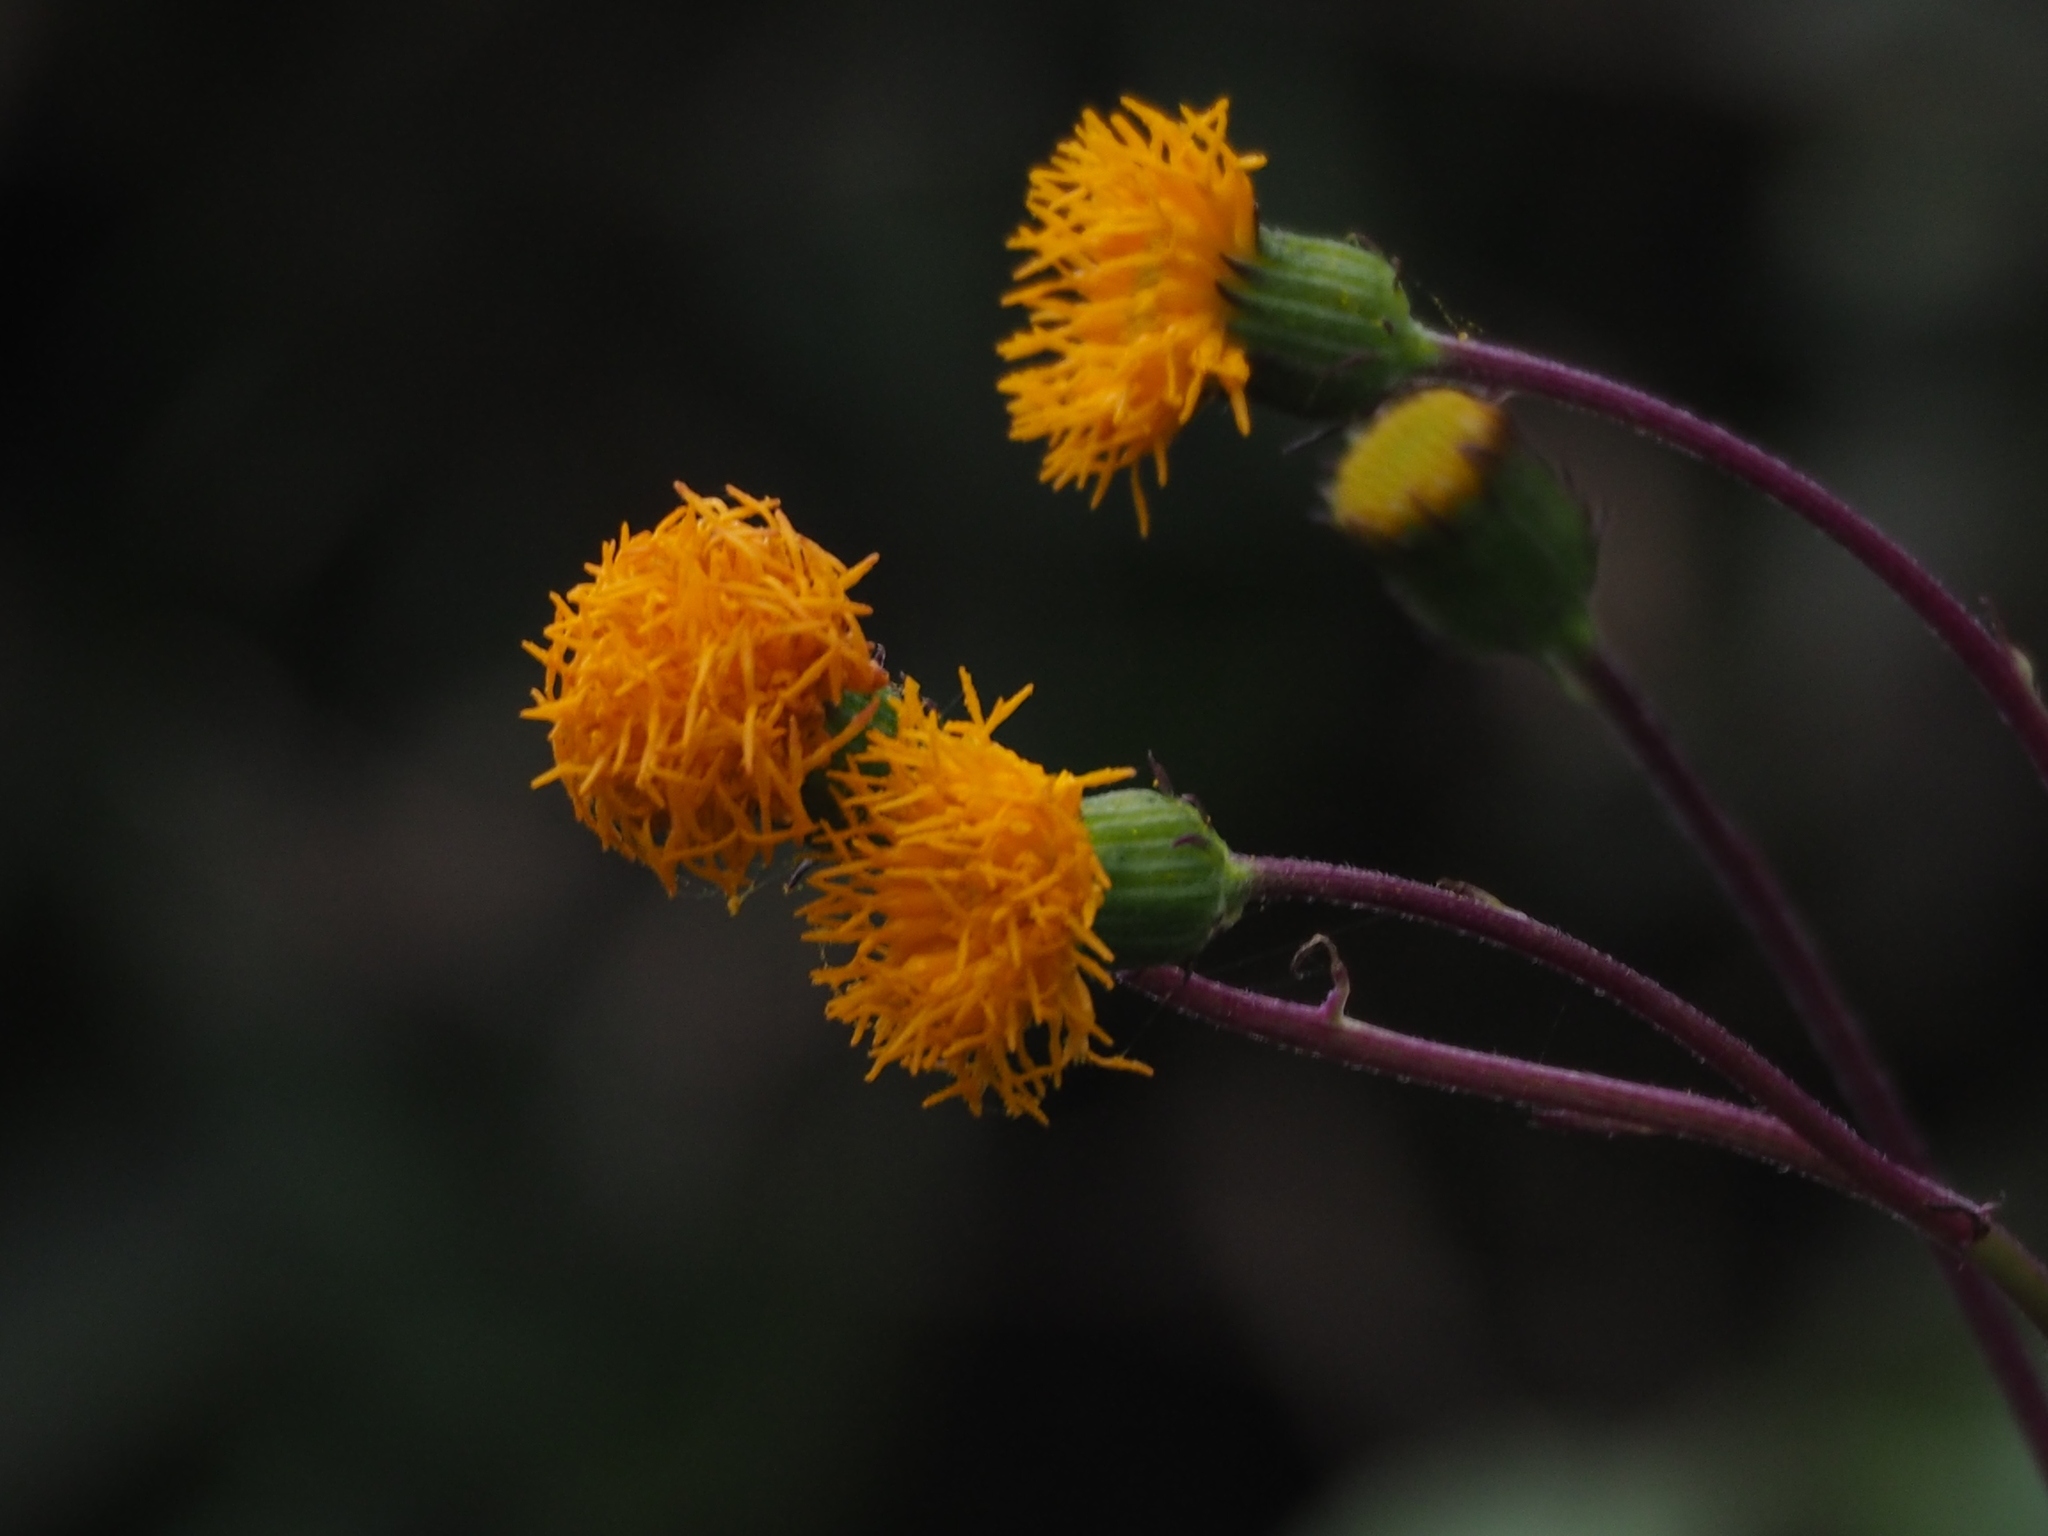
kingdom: Plantae
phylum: Tracheophyta
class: Magnoliopsida
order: Asterales
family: Asteraceae
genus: Gynura
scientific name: Gynura formosana
